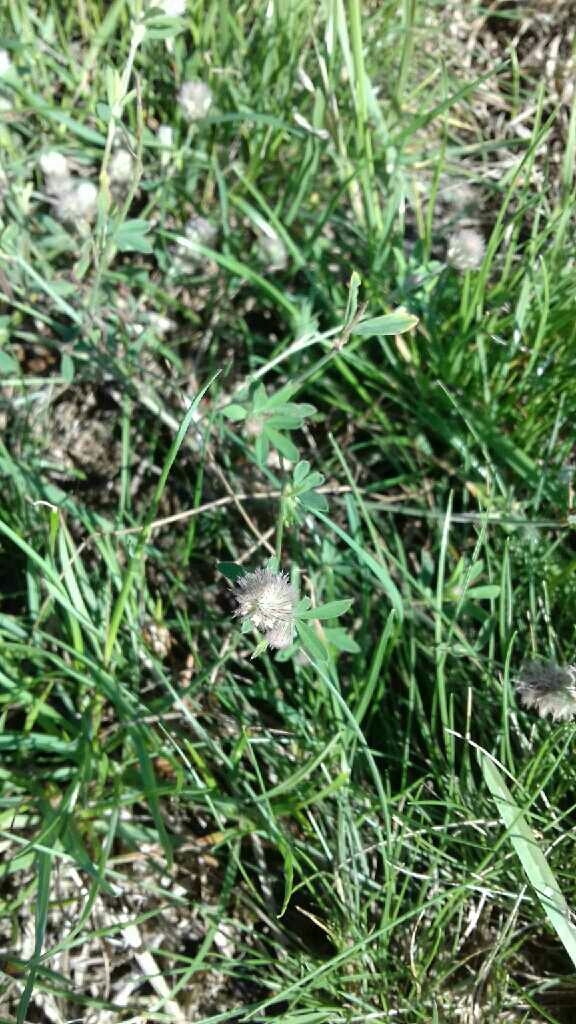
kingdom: Plantae
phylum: Tracheophyta
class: Magnoliopsida
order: Fabales
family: Fabaceae
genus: Trifolium
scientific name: Trifolium arvense
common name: Hare's-foot clover
